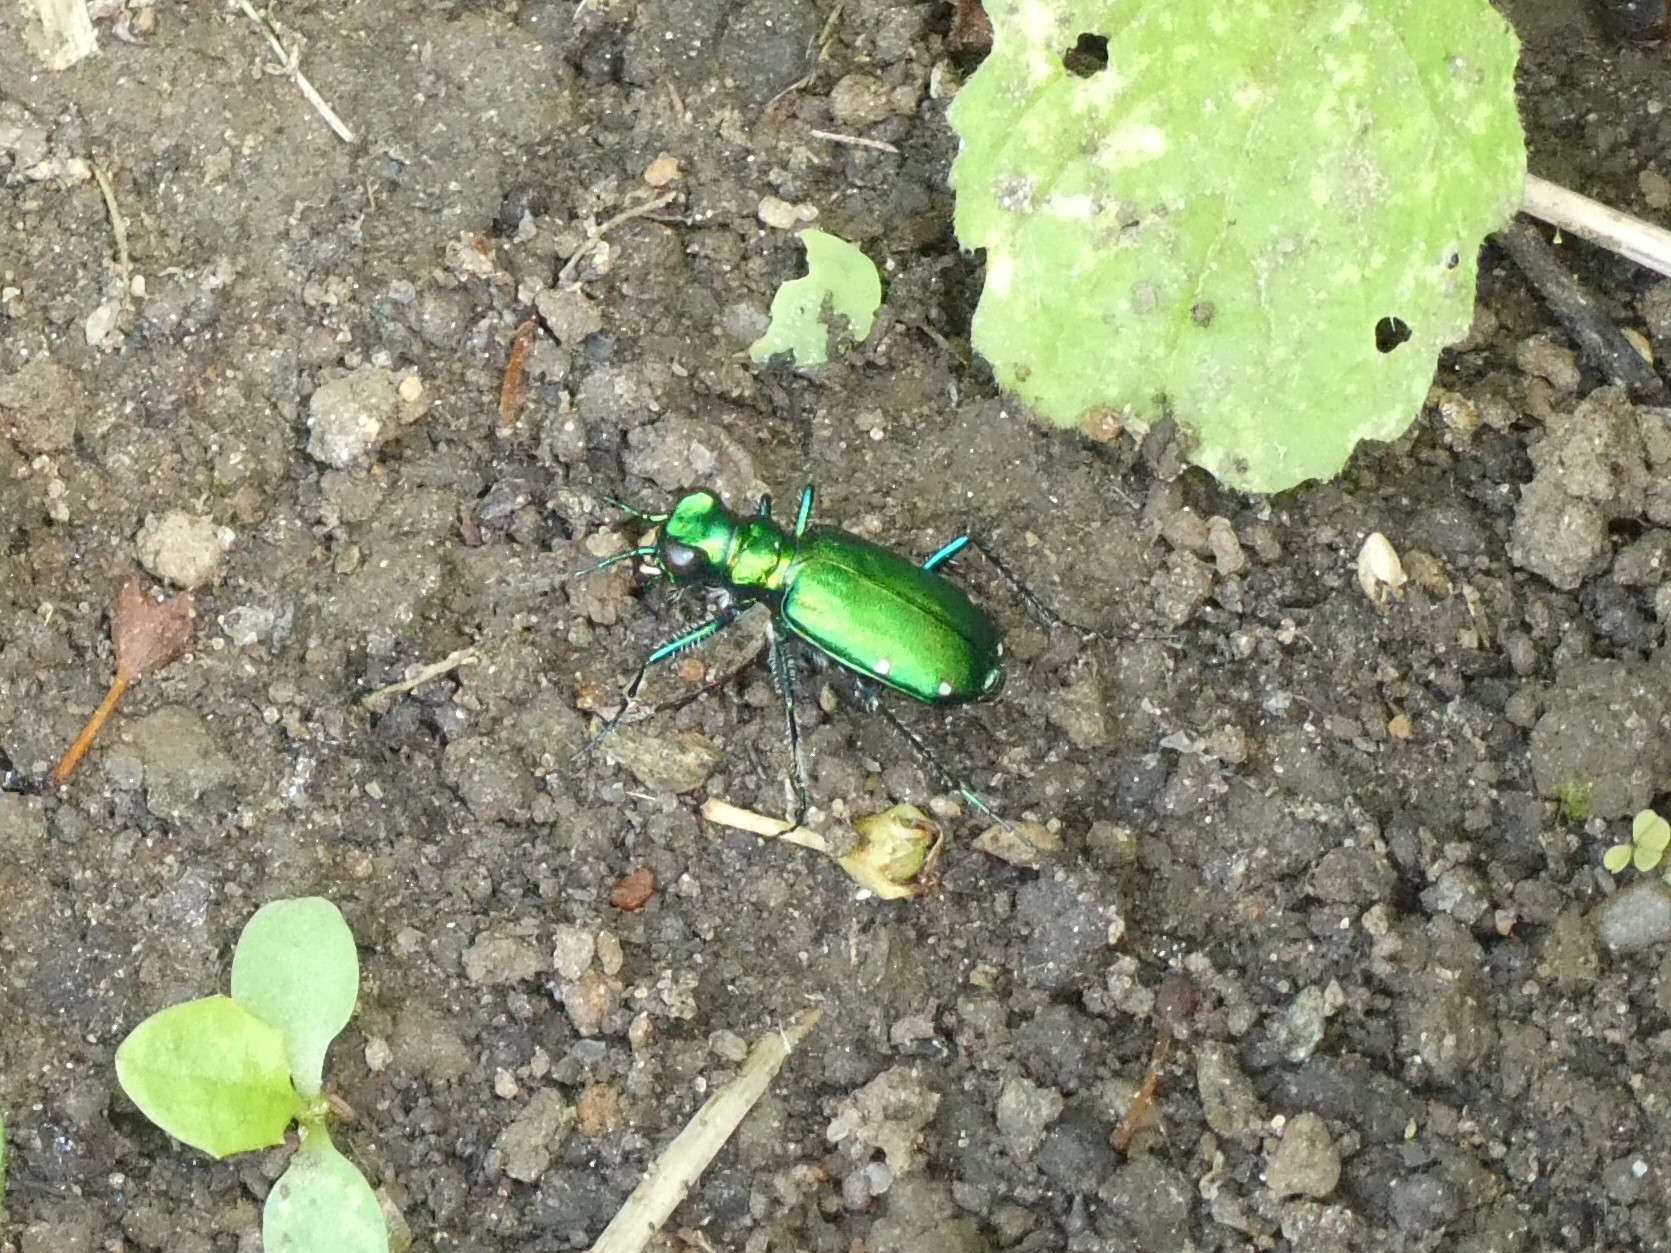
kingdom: Animalia
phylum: Arthropoda
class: Insecta
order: Coleoptera
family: Carabidae
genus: Cicindela
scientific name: Cicindela sexguttata
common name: Six-spotted tiger beetle
